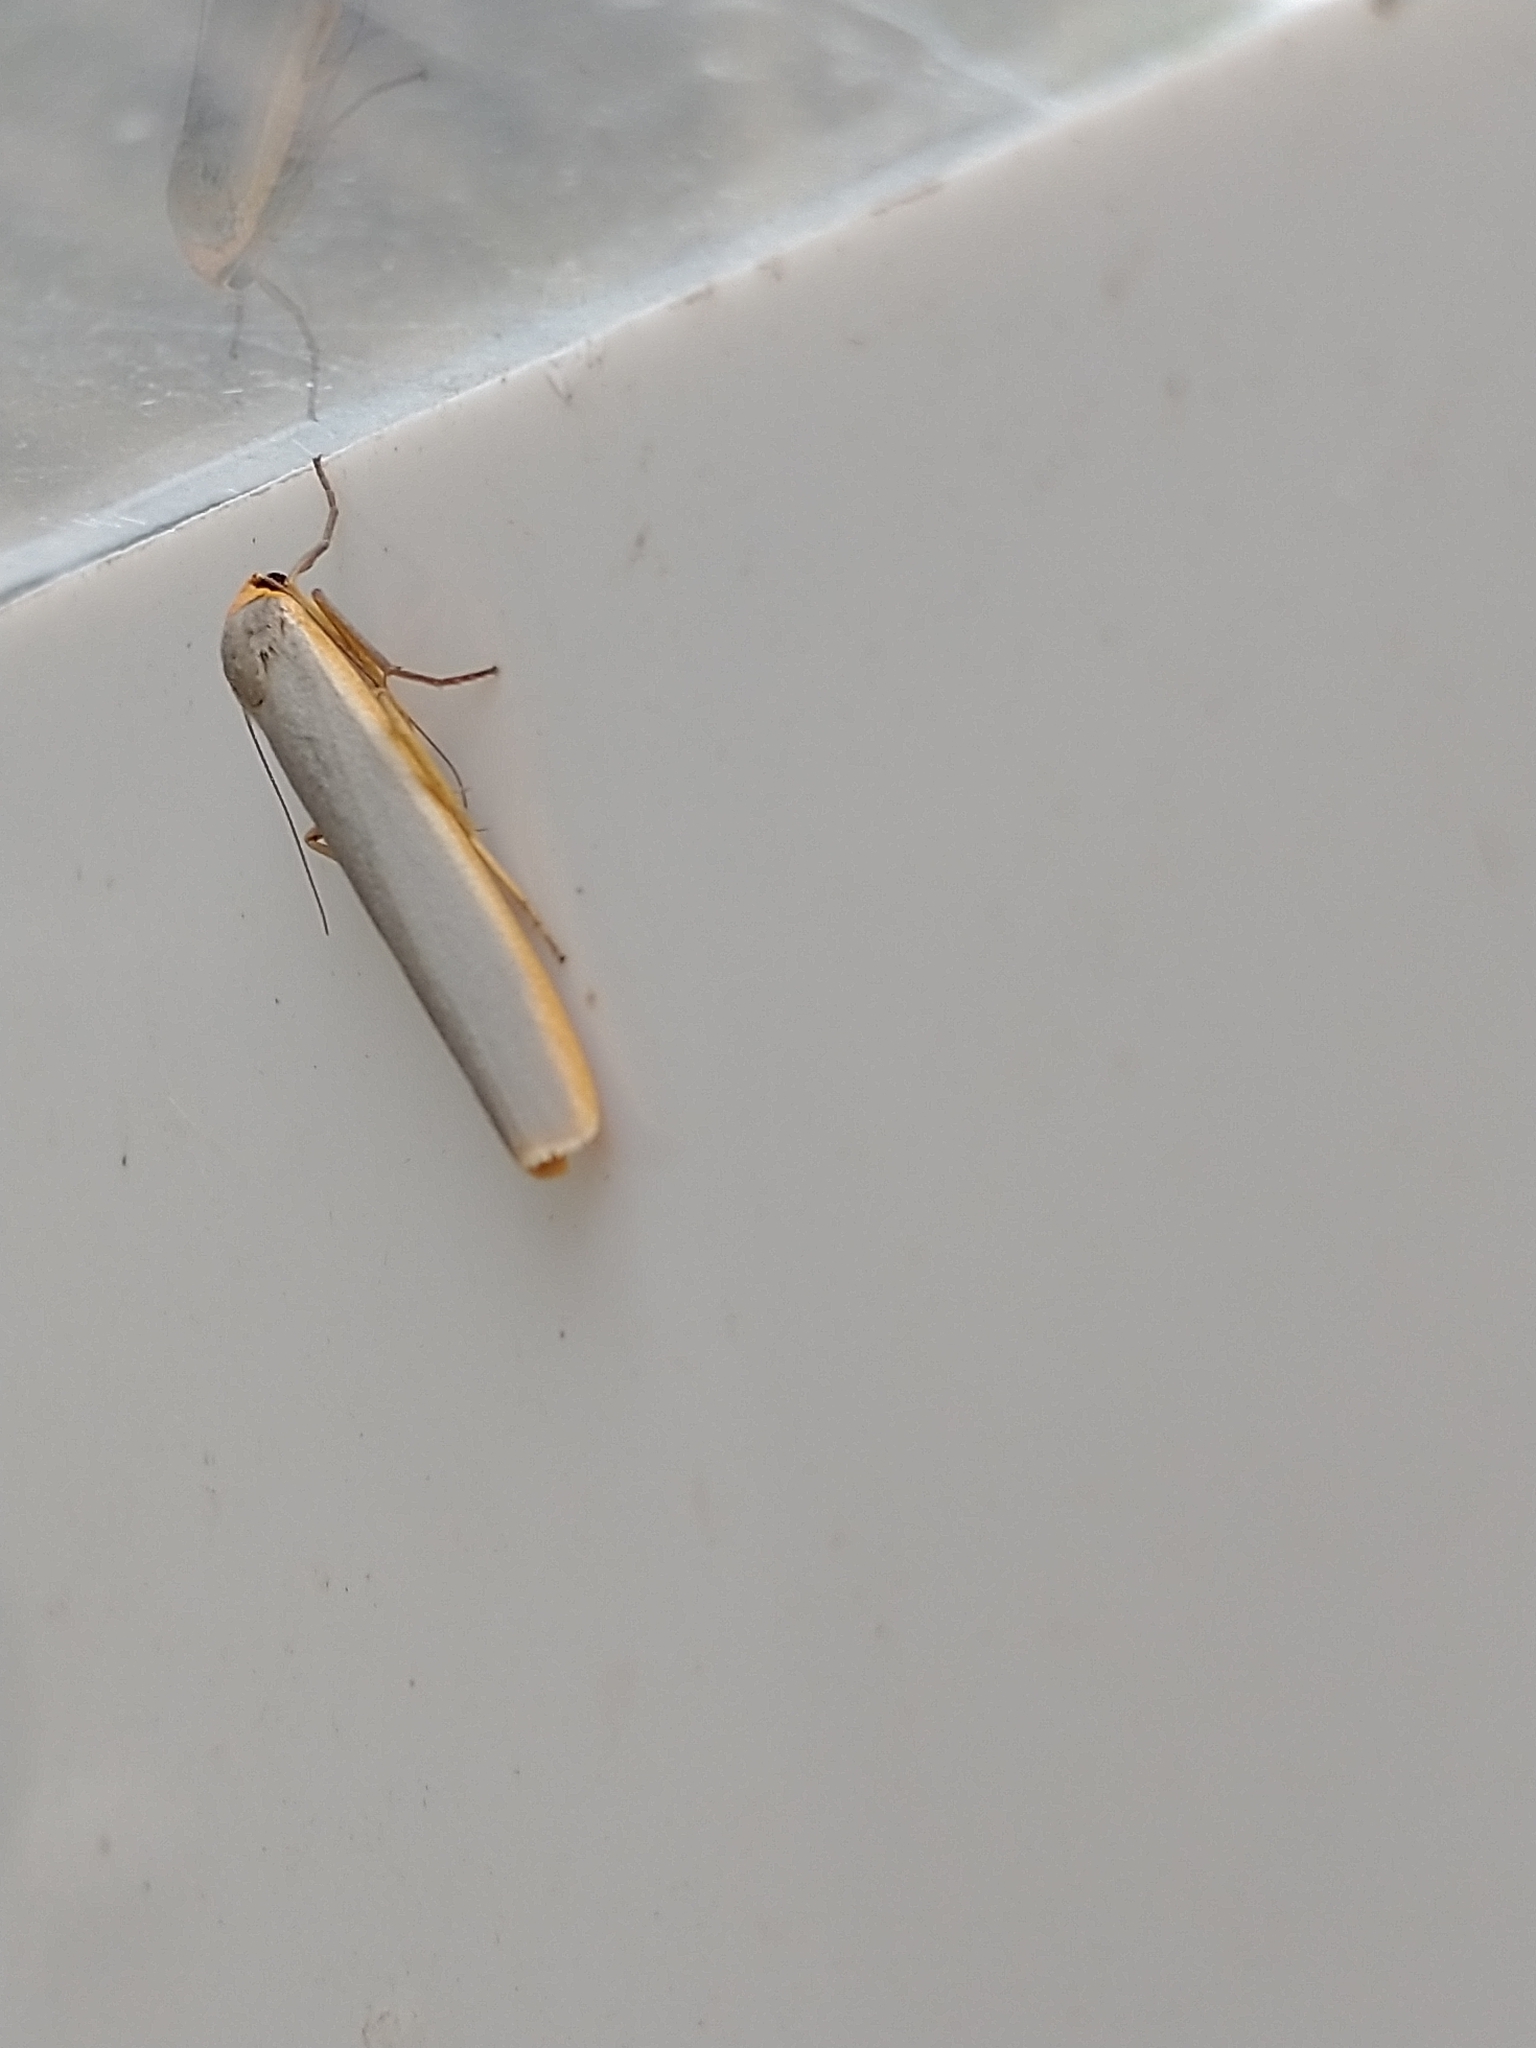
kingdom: Animalia
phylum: Arthropoda
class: Insecta
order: Lepidoptera
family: Erebidae
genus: Manulea
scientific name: Manulea complana
